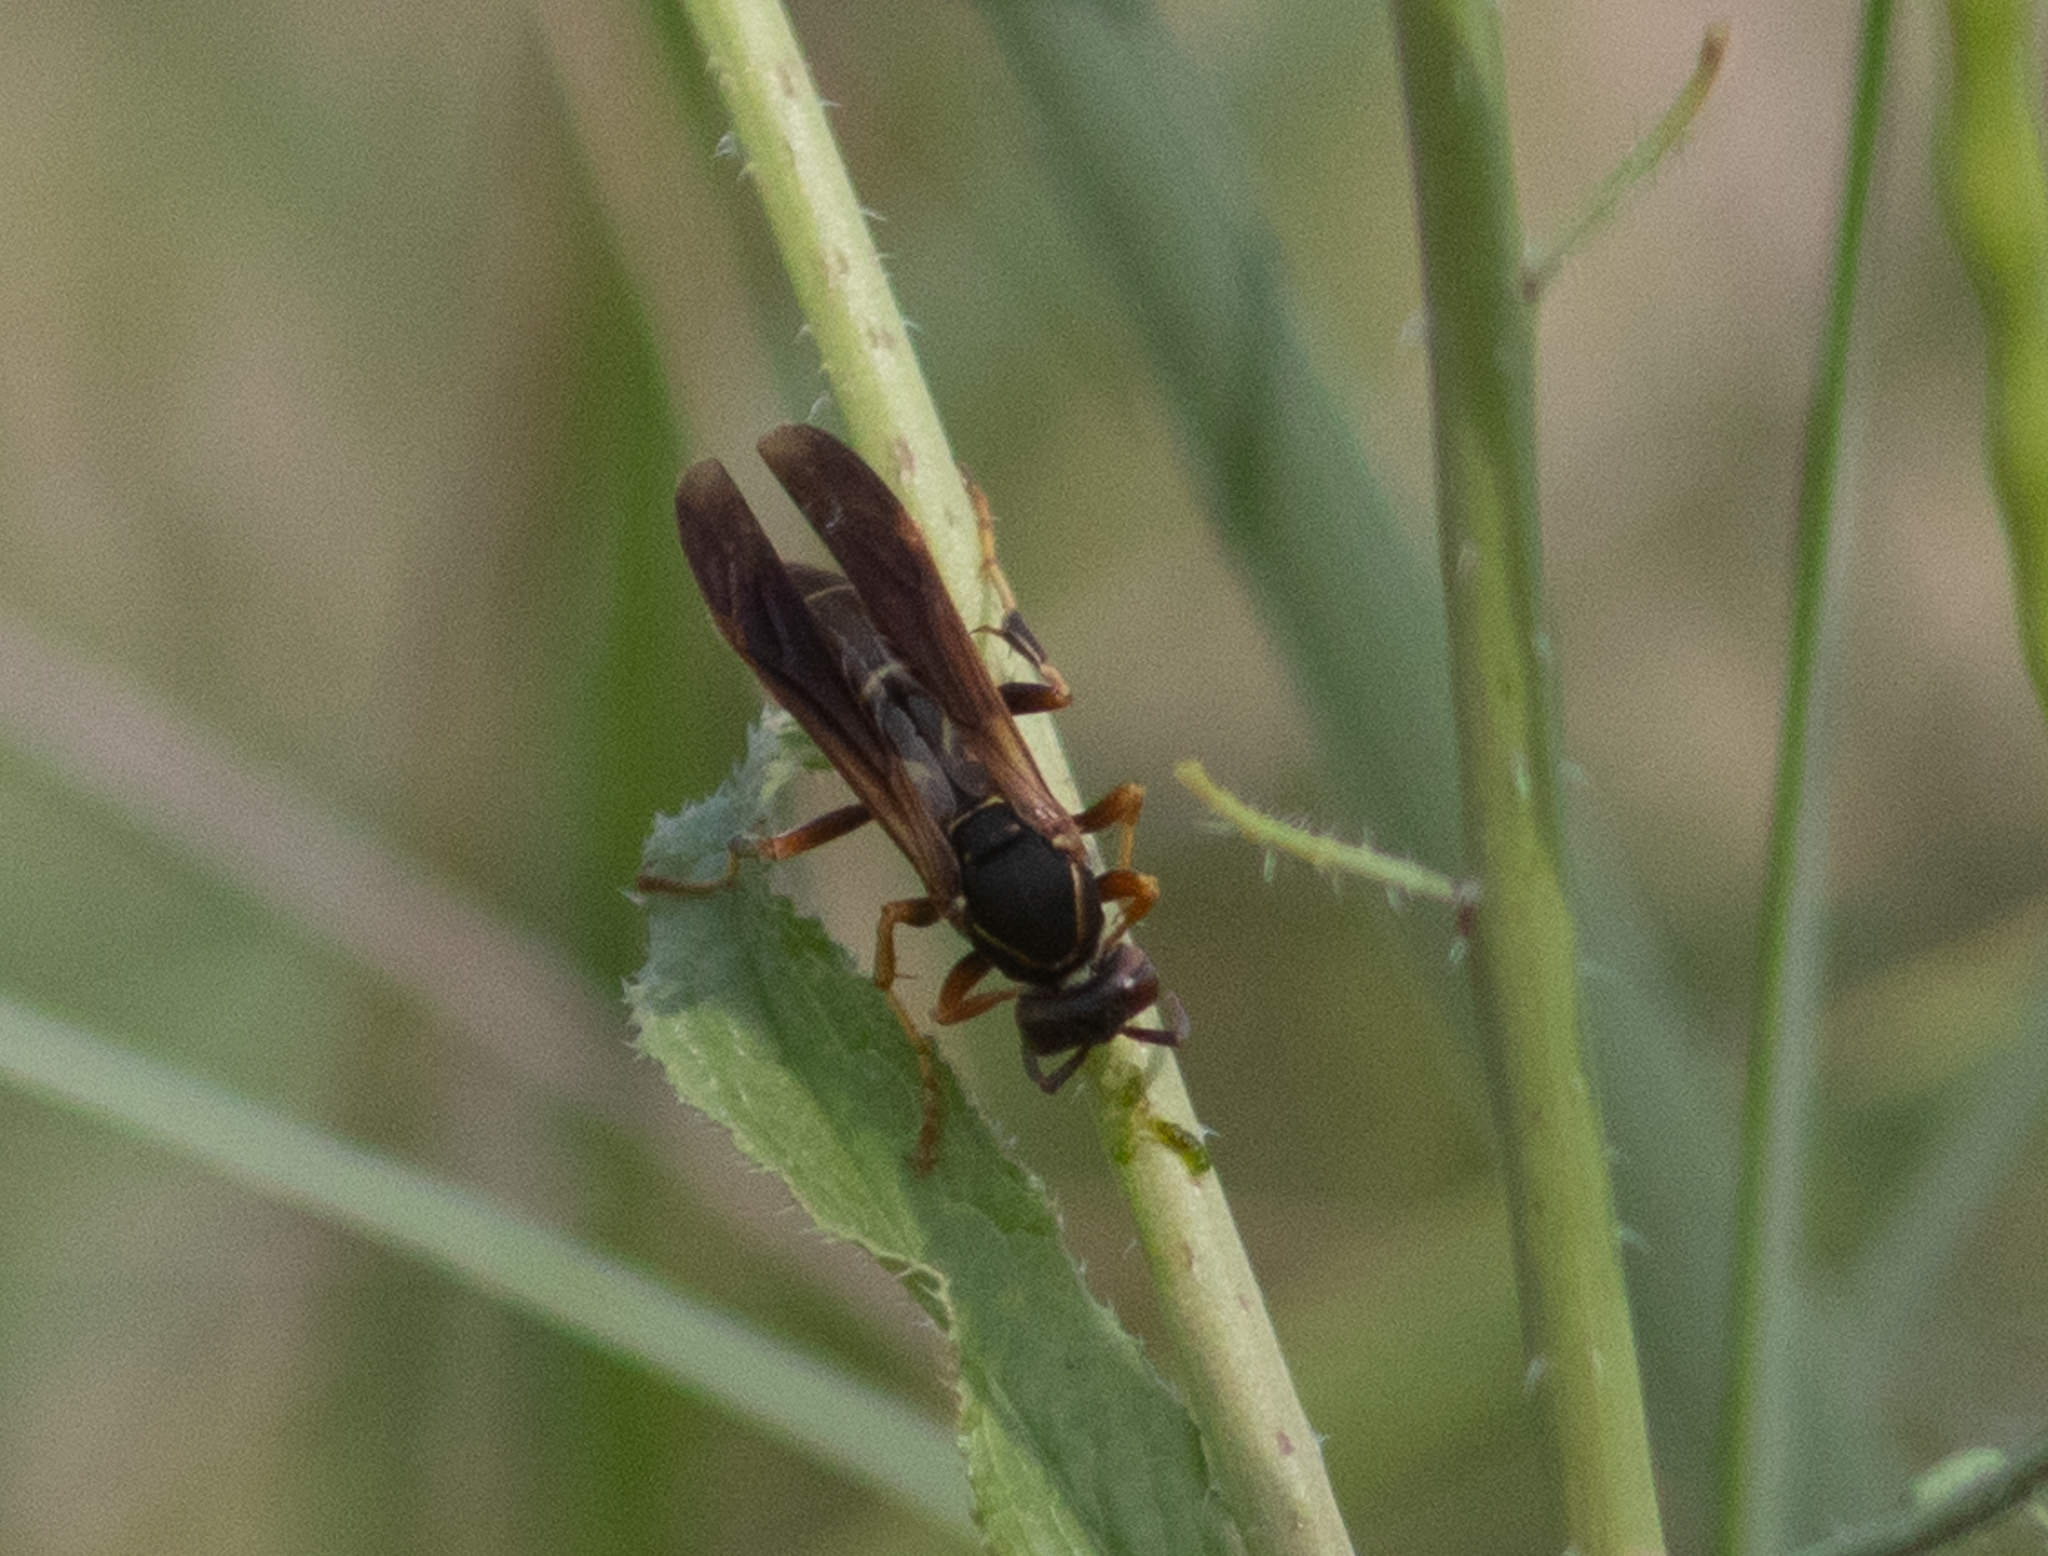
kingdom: Animalia
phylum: Arthropoda
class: Insecta
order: Hymenoptera
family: Eumenidae
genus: Polistes
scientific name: Polistes fuscatus
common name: Dark paper wasp
